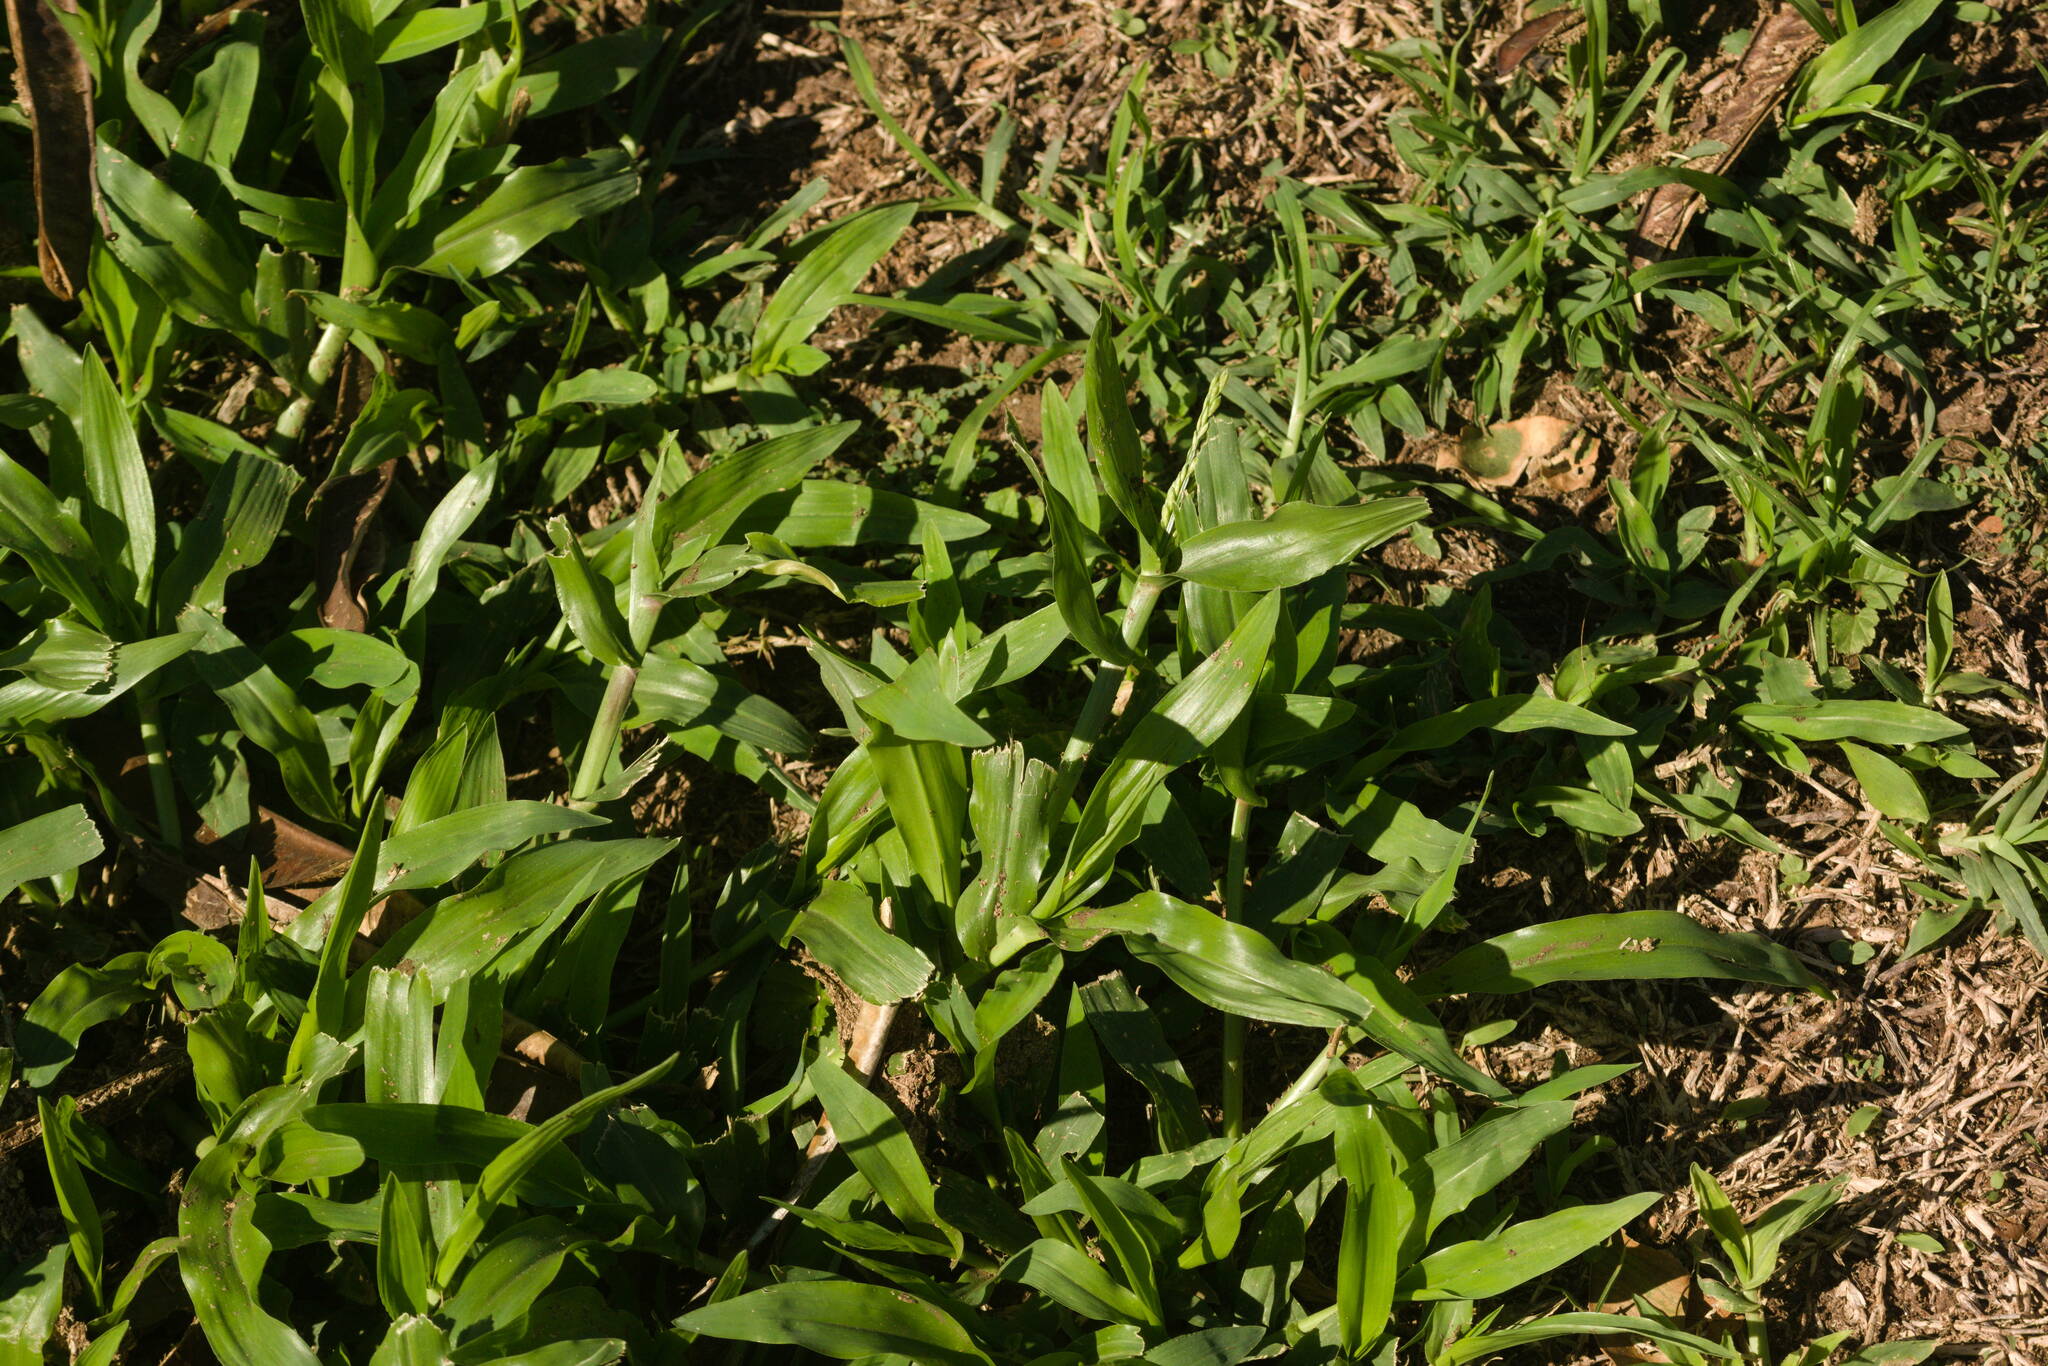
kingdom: Plantae
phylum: Tracheophyta
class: Liliopsida
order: Poales
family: Poaceae
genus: Urochloa
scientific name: Urochloa plantaginea
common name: Plantain signalgrass
